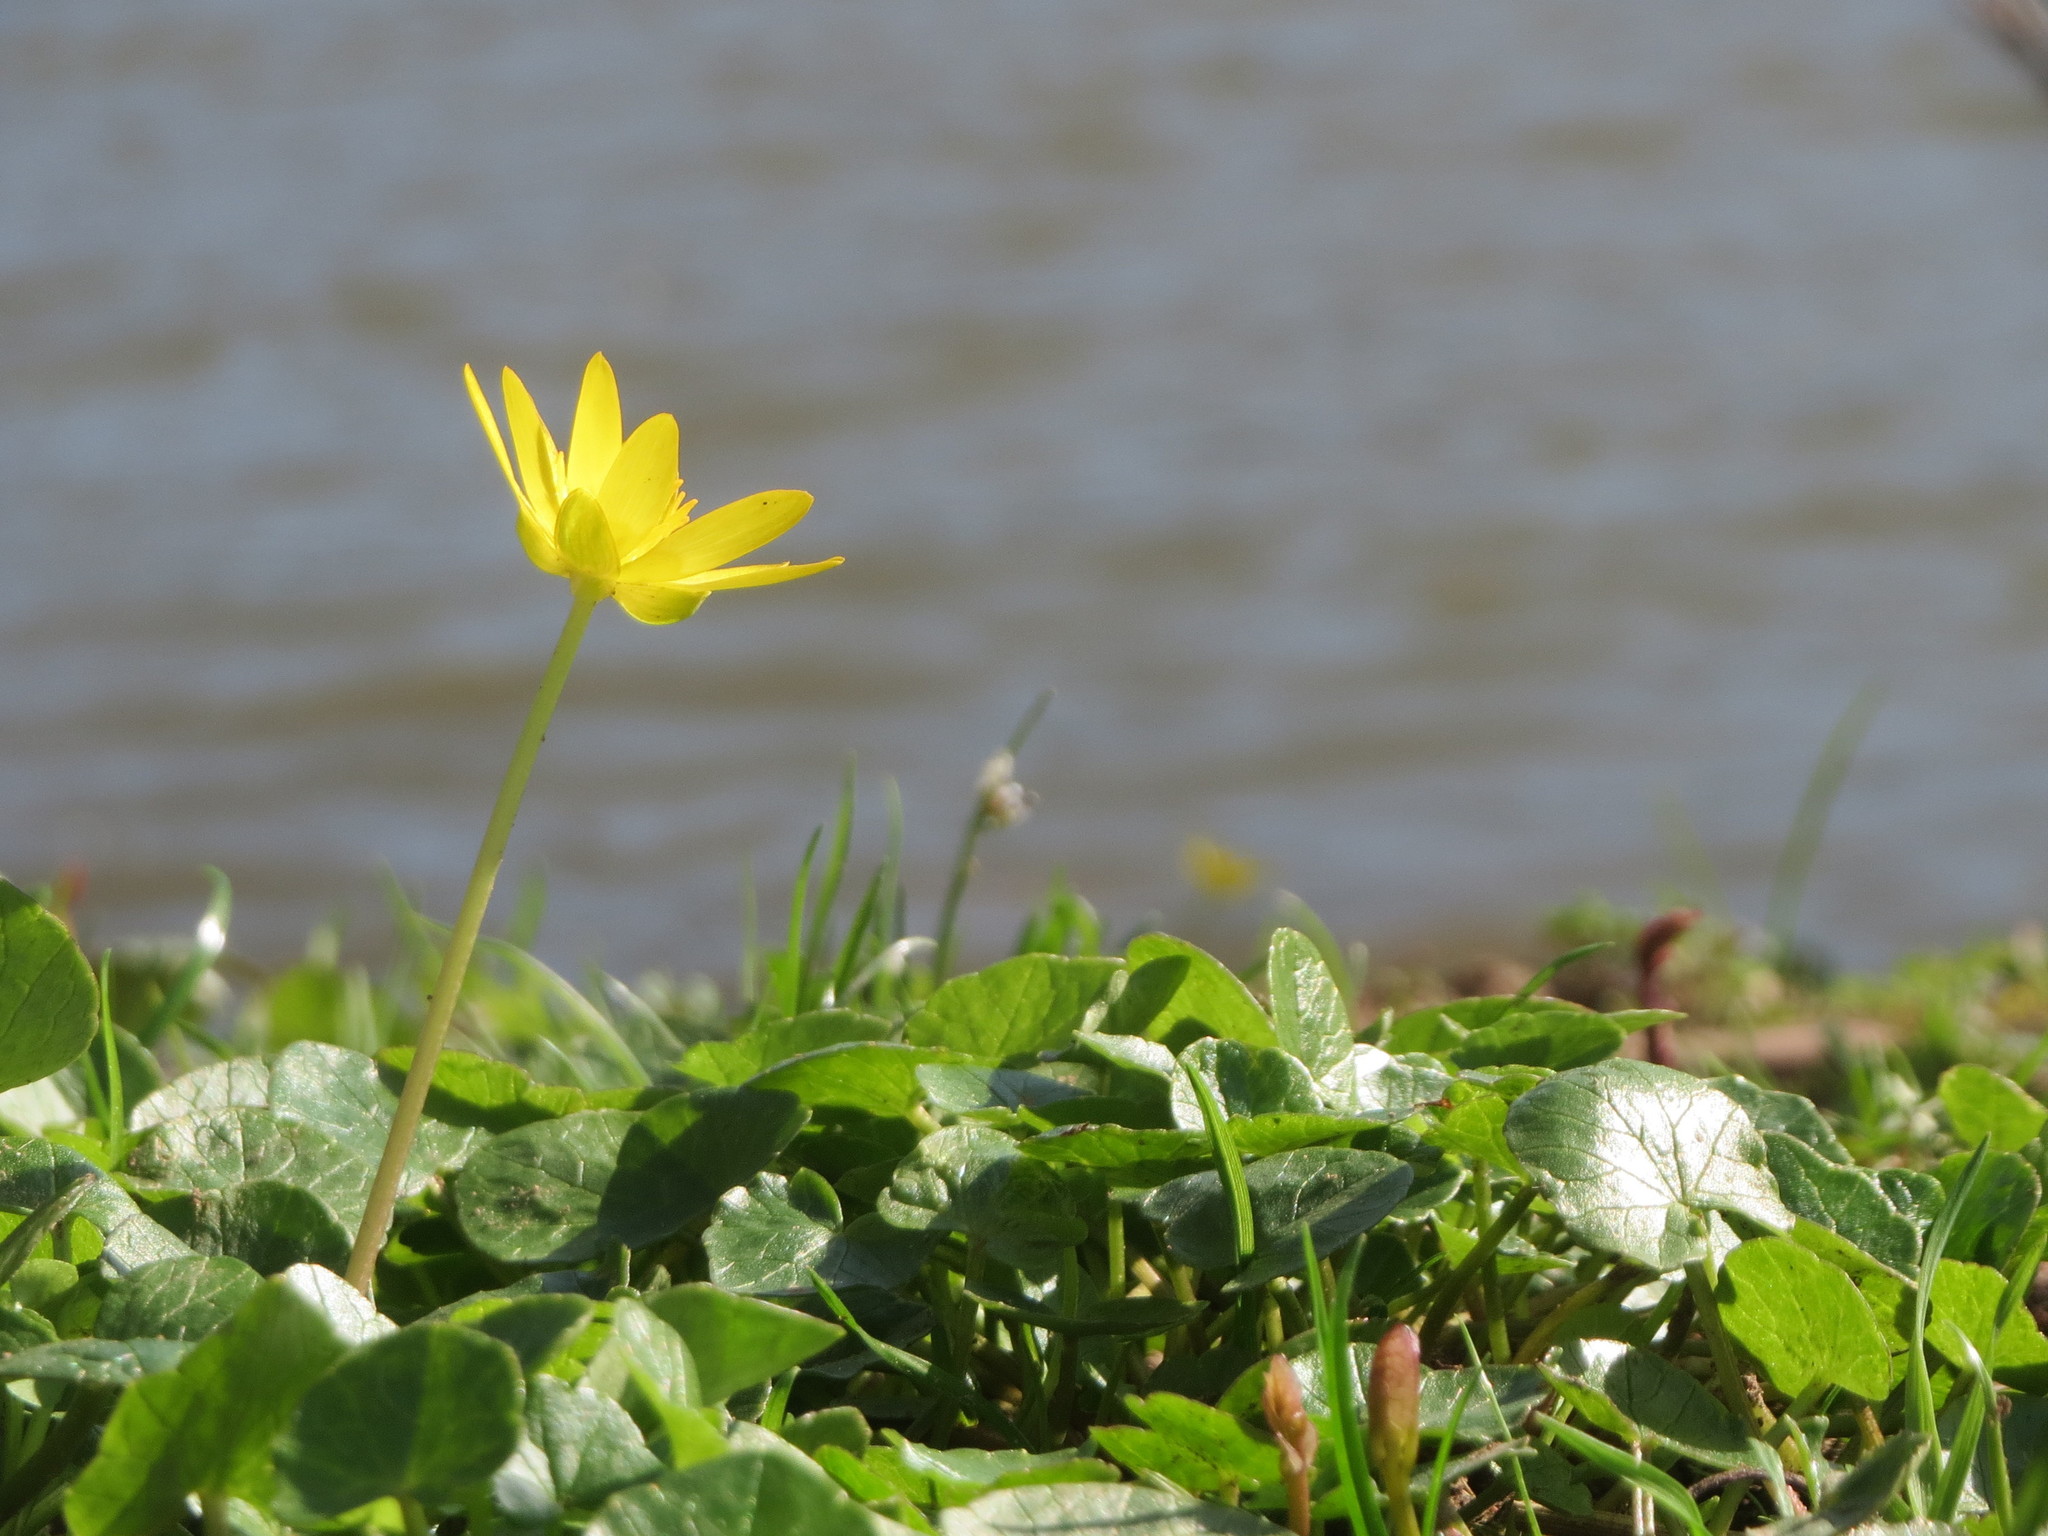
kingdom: Plantae
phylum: Tracheophyta
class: Magnoliopsida
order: Ranunculales
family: Ranunculaceae
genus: Ficaria
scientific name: Ficaria verna
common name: Lesser celandine
